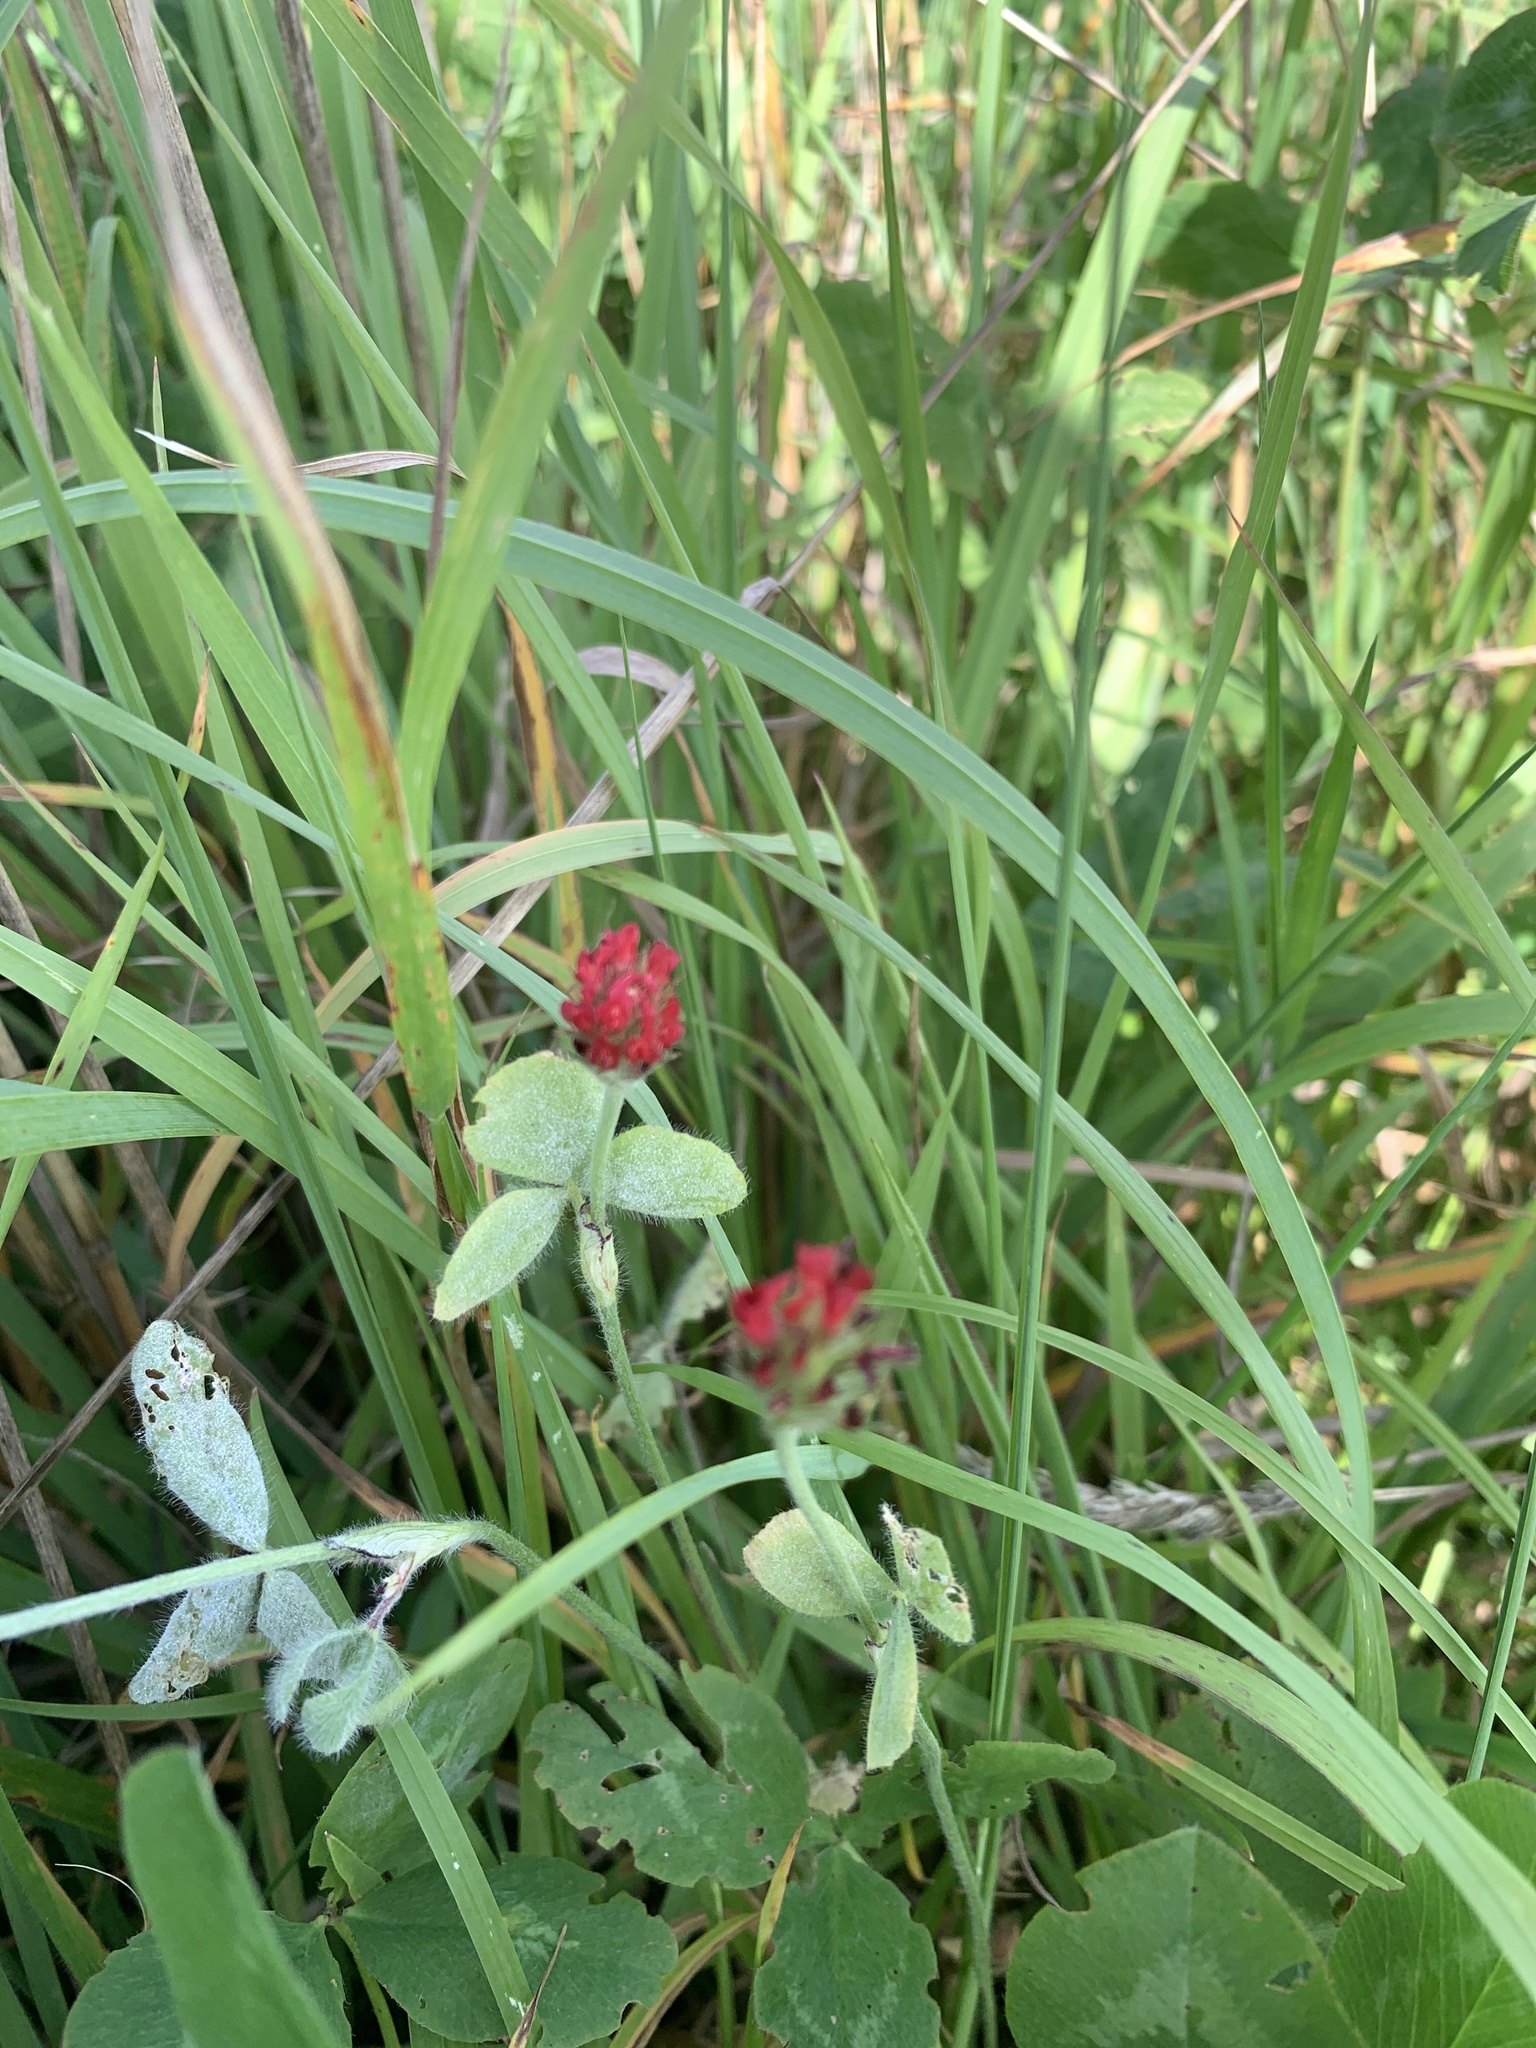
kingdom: Plantae
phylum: Tracheophyta
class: Magnoliopsida
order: Fabales
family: Fabaceae
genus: Trifolium
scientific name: Trifolium incarnatum
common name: Crimson clover
